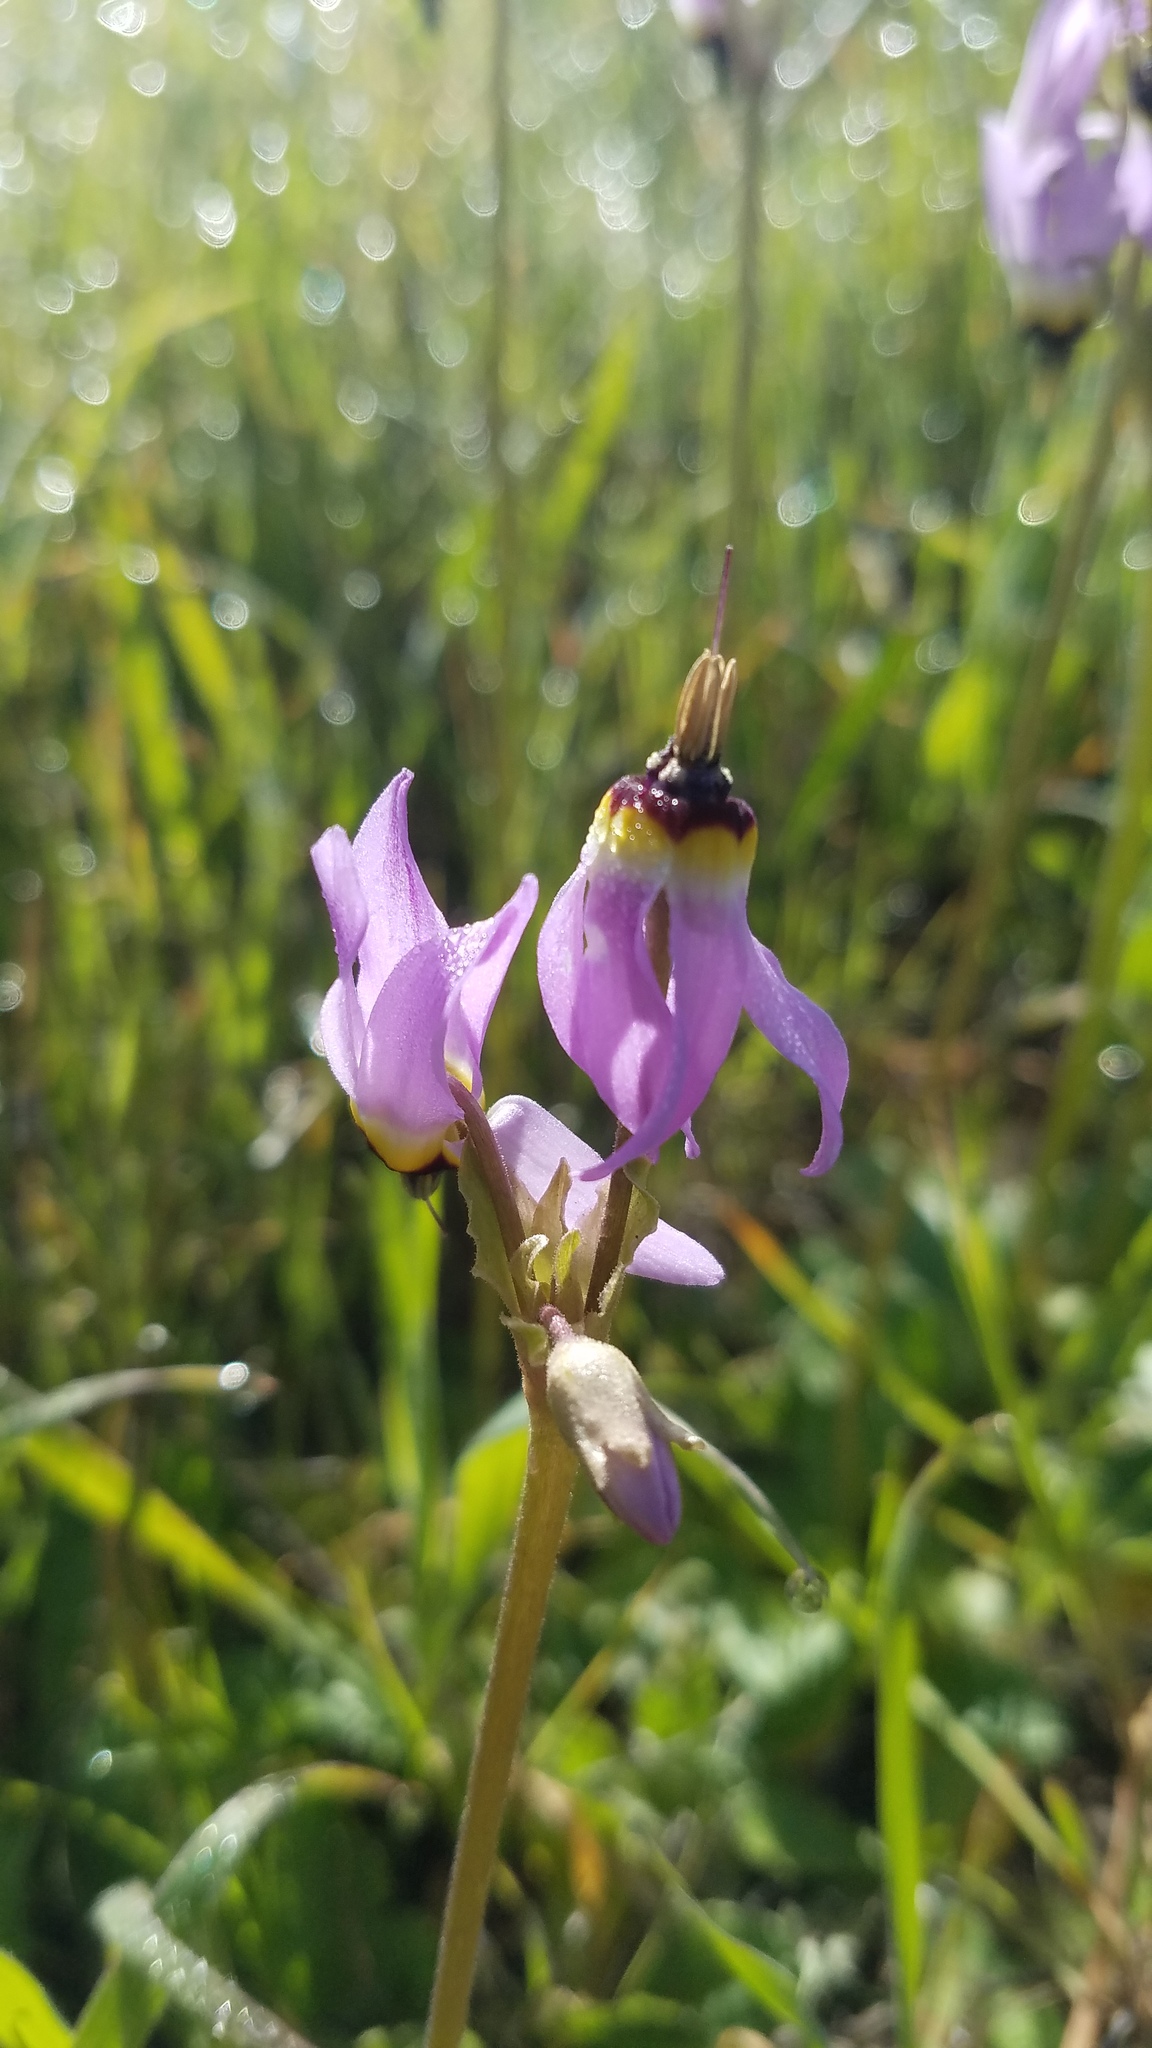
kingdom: Plantae
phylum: Tracheophyta
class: Magnoliopsida
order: Ericales
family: Primulaceae
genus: Dodecatheon
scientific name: Dodecatheon clevelandii
